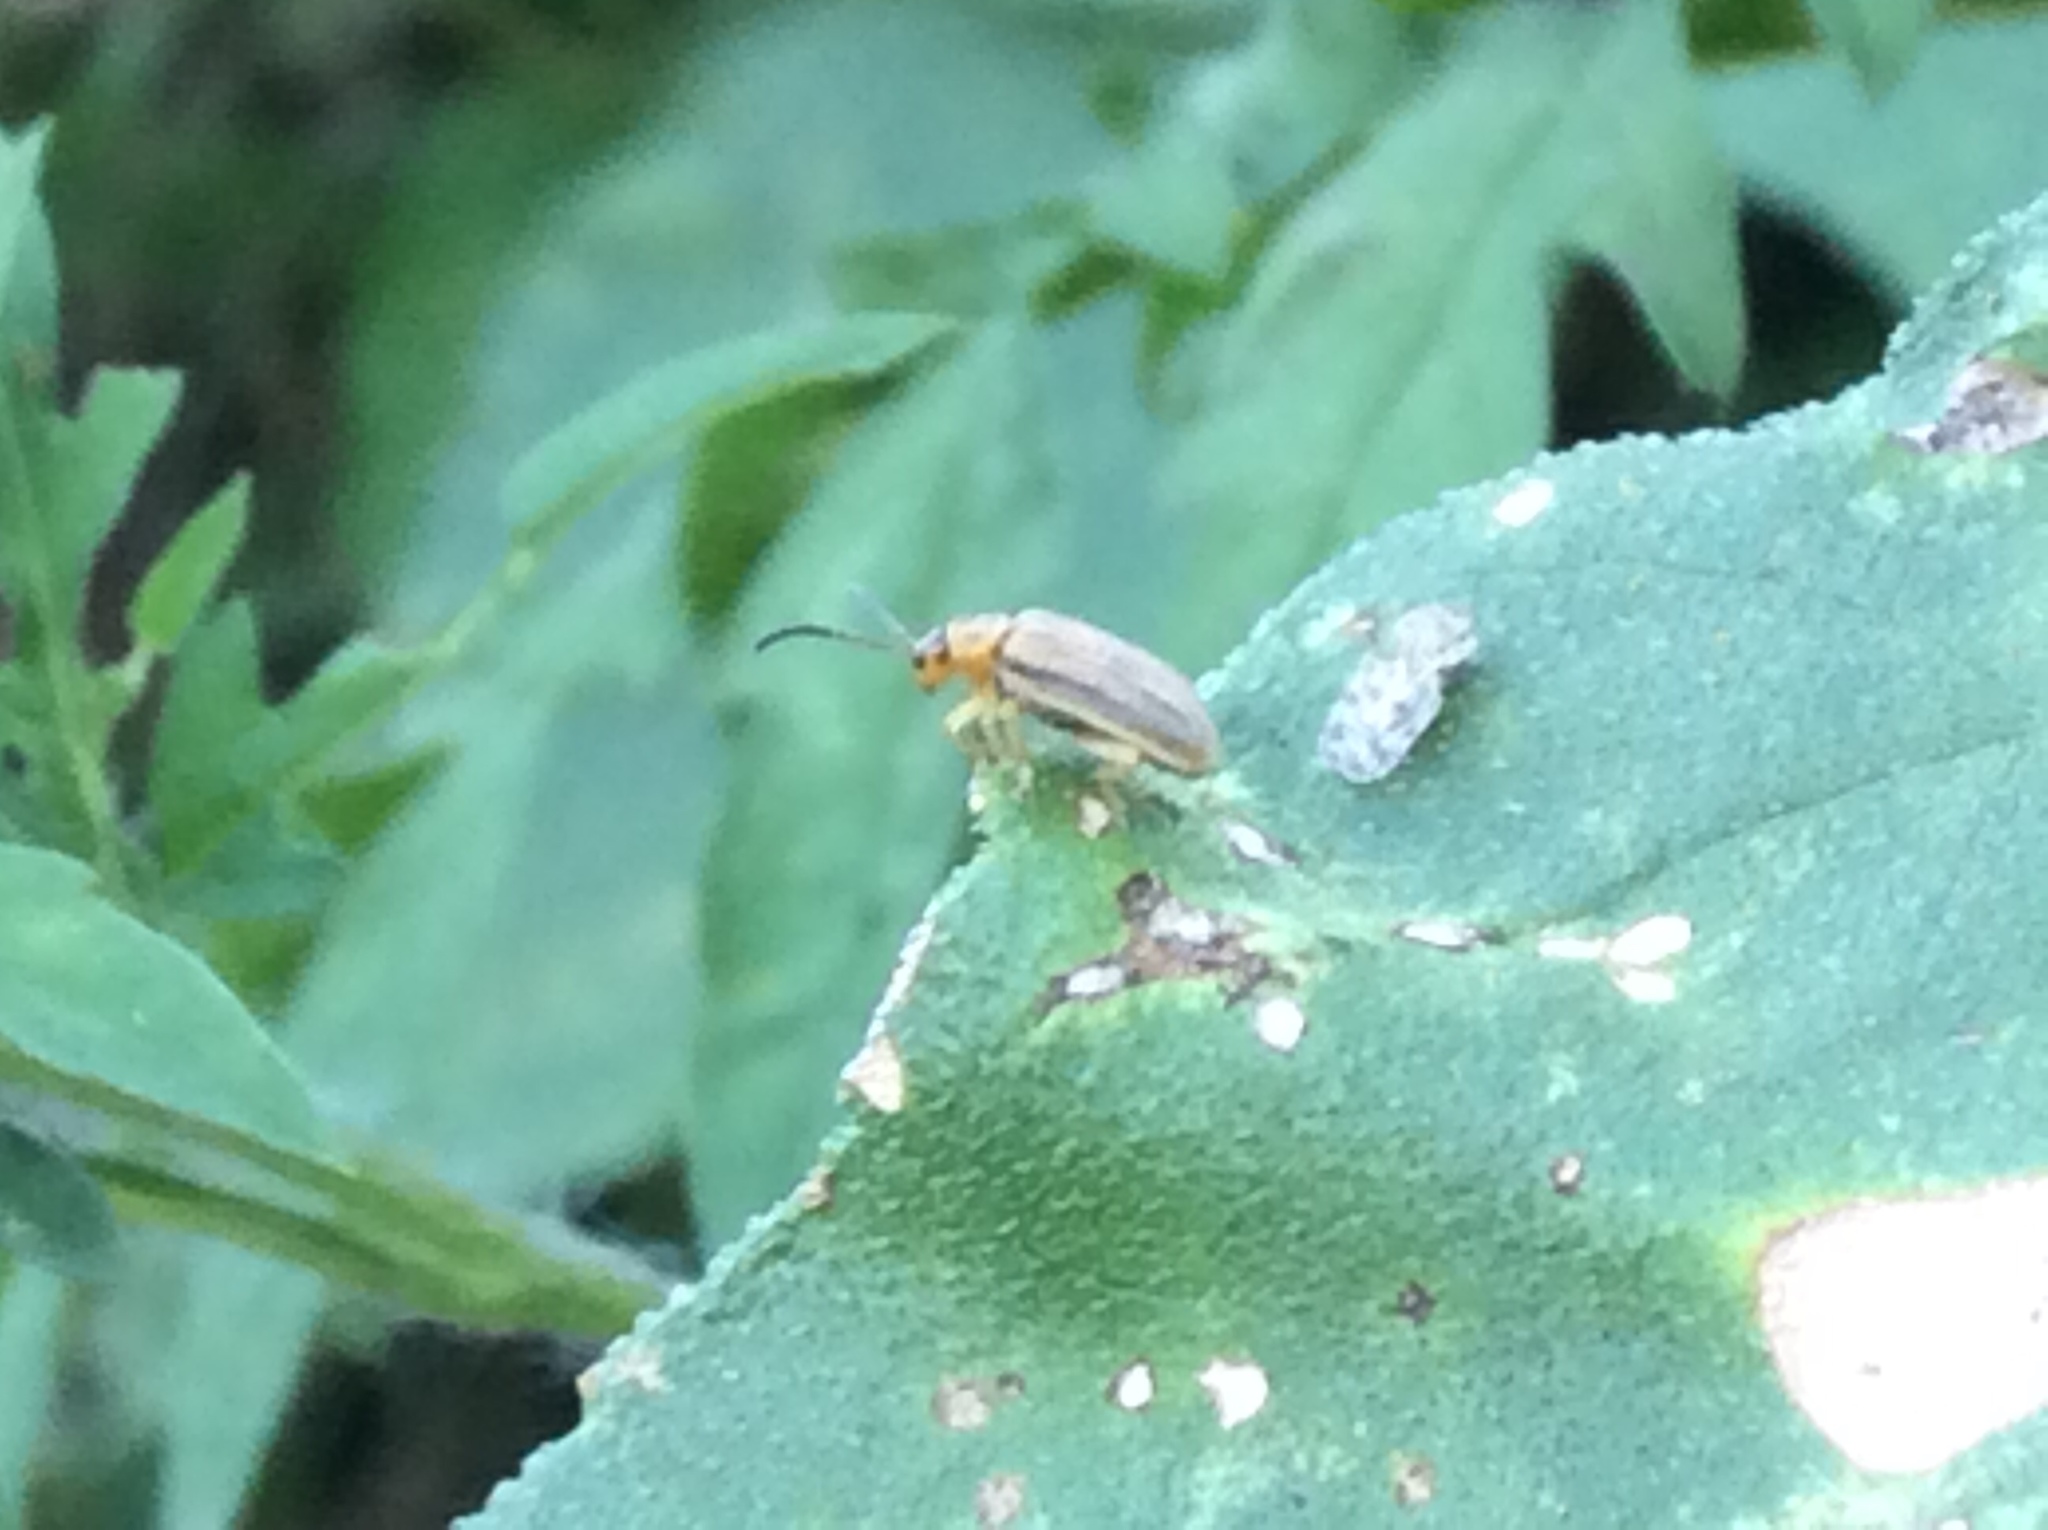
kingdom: Animalia
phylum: Arthropoda
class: Insecta
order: Coleoptera
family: Chrysomelidae
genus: Ophraella
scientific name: Ophraella communa
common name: Ragweed leaf beetle
